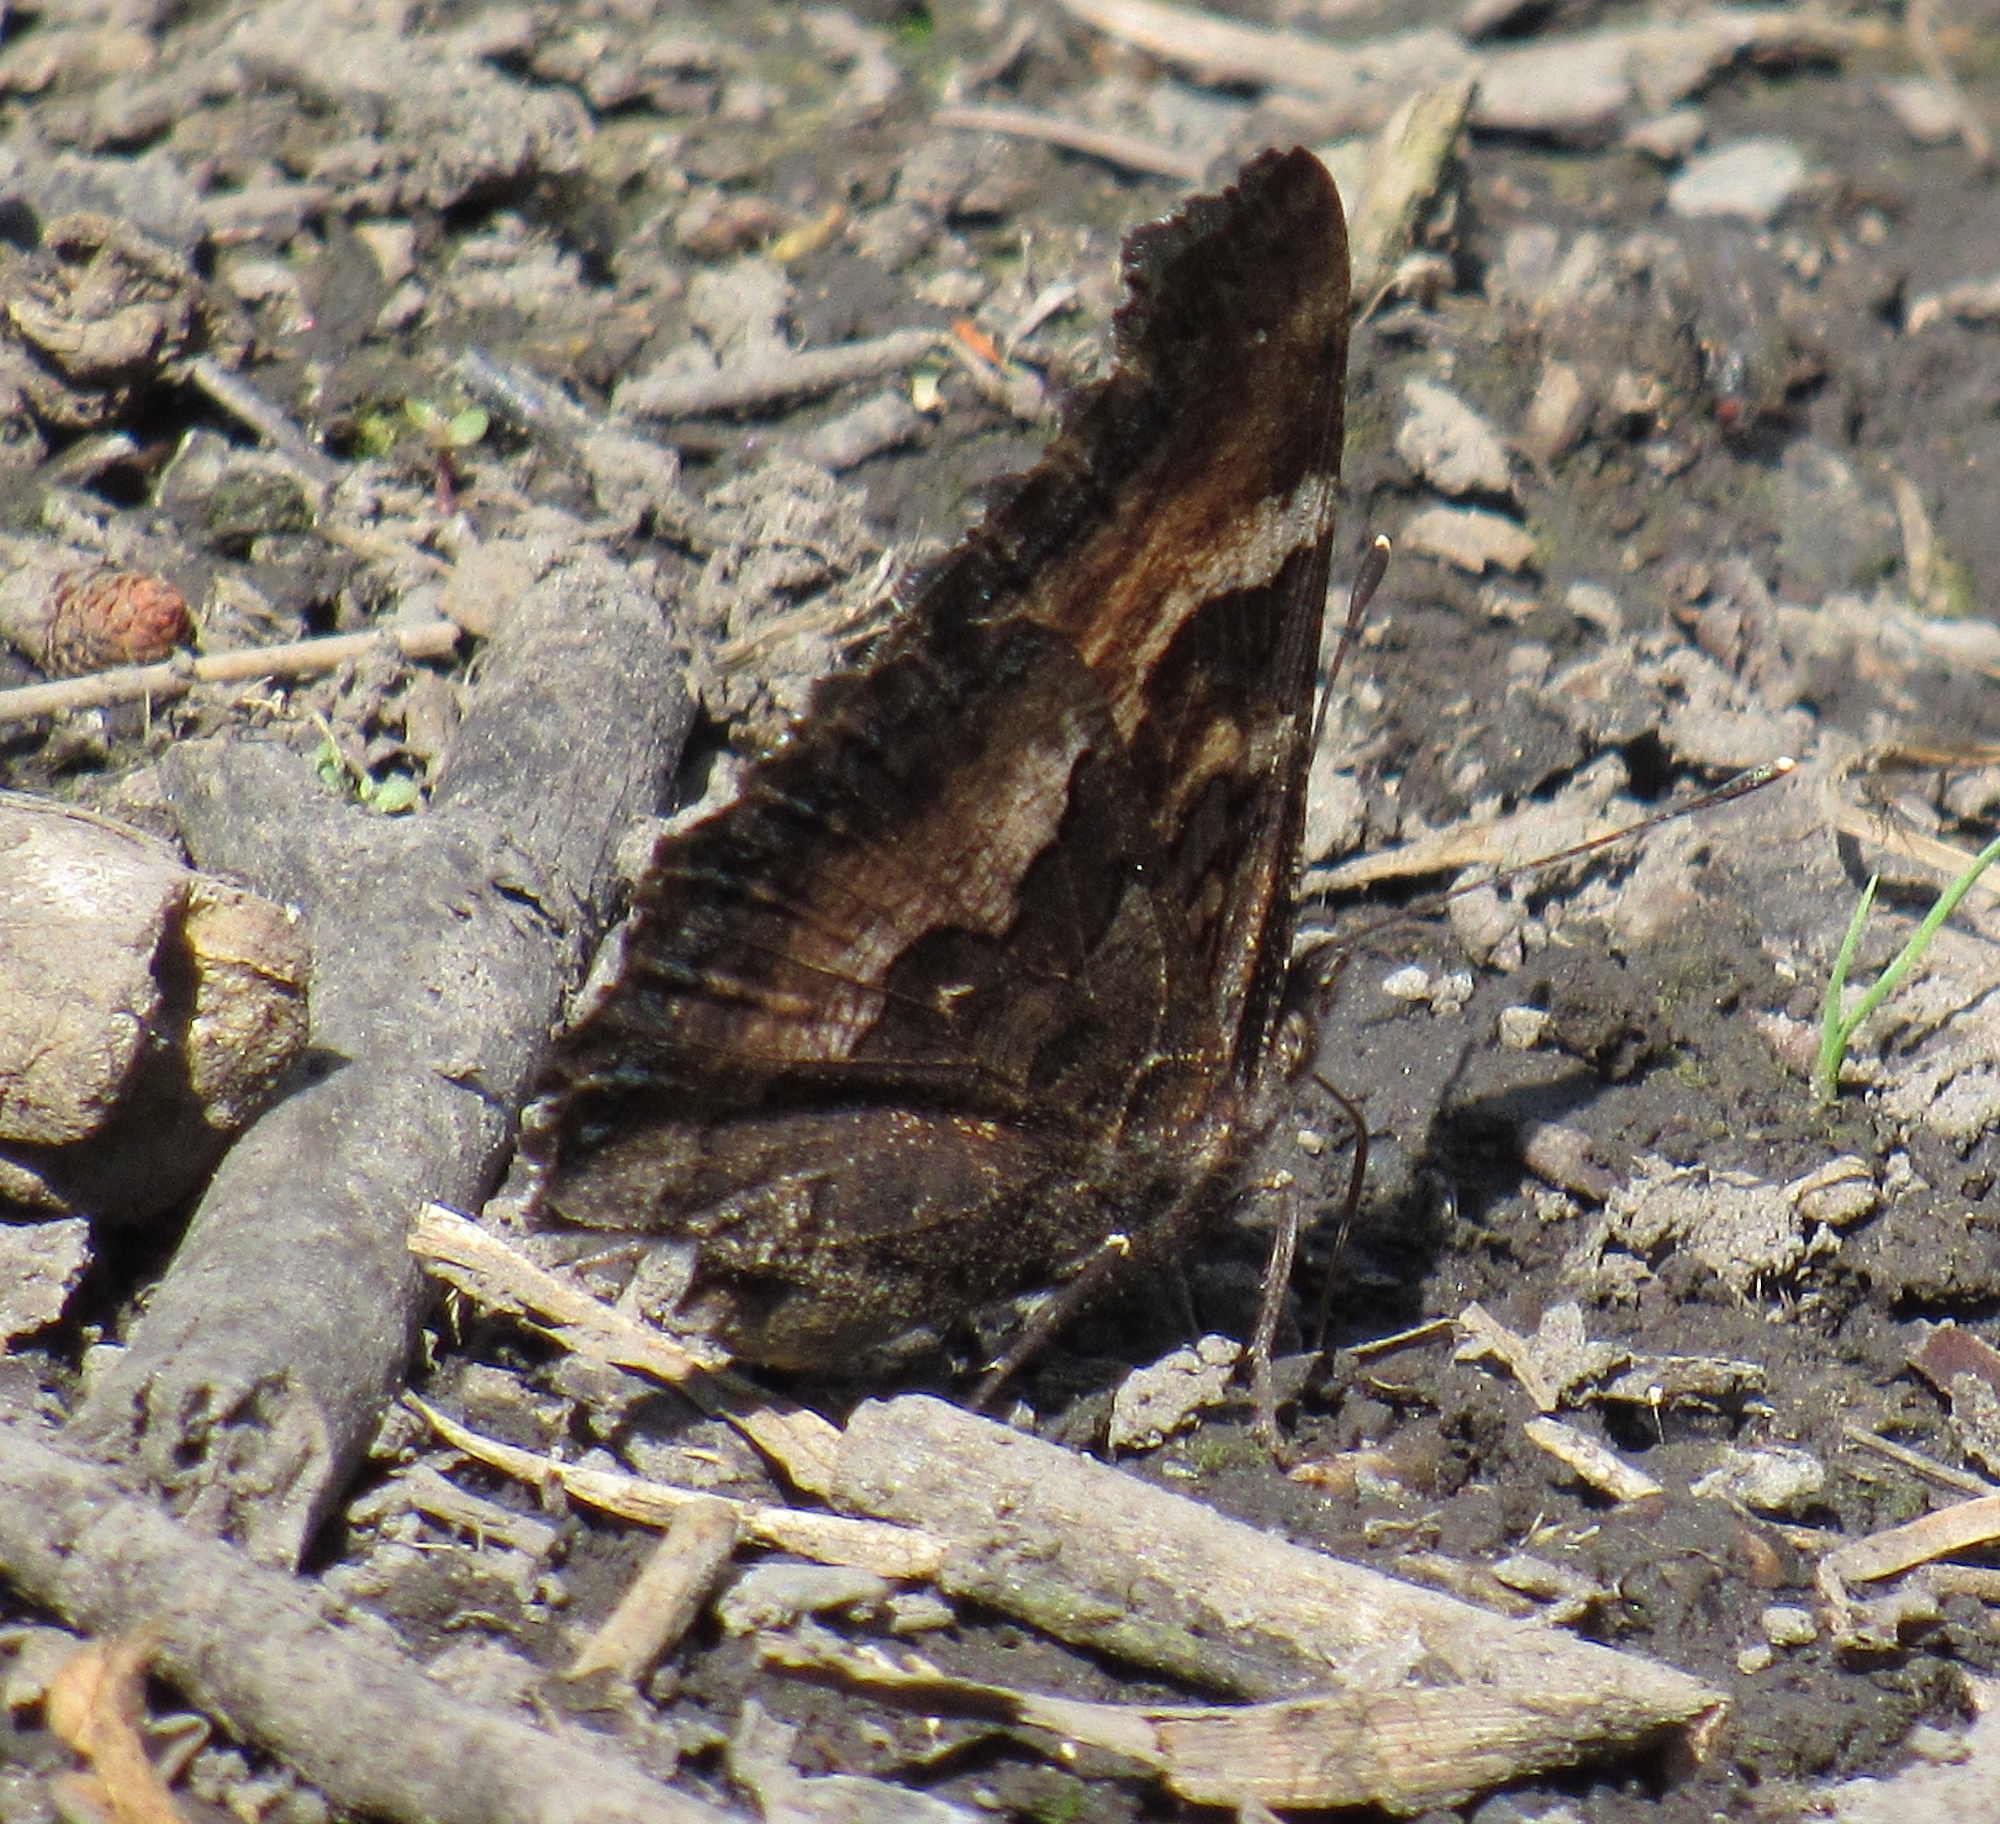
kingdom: Animalia
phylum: Arthropoda
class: Insecta
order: Lepidoptera
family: Nymphalidae
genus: Nymphalis
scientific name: Nymphalis californica
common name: California tortoiseshell
